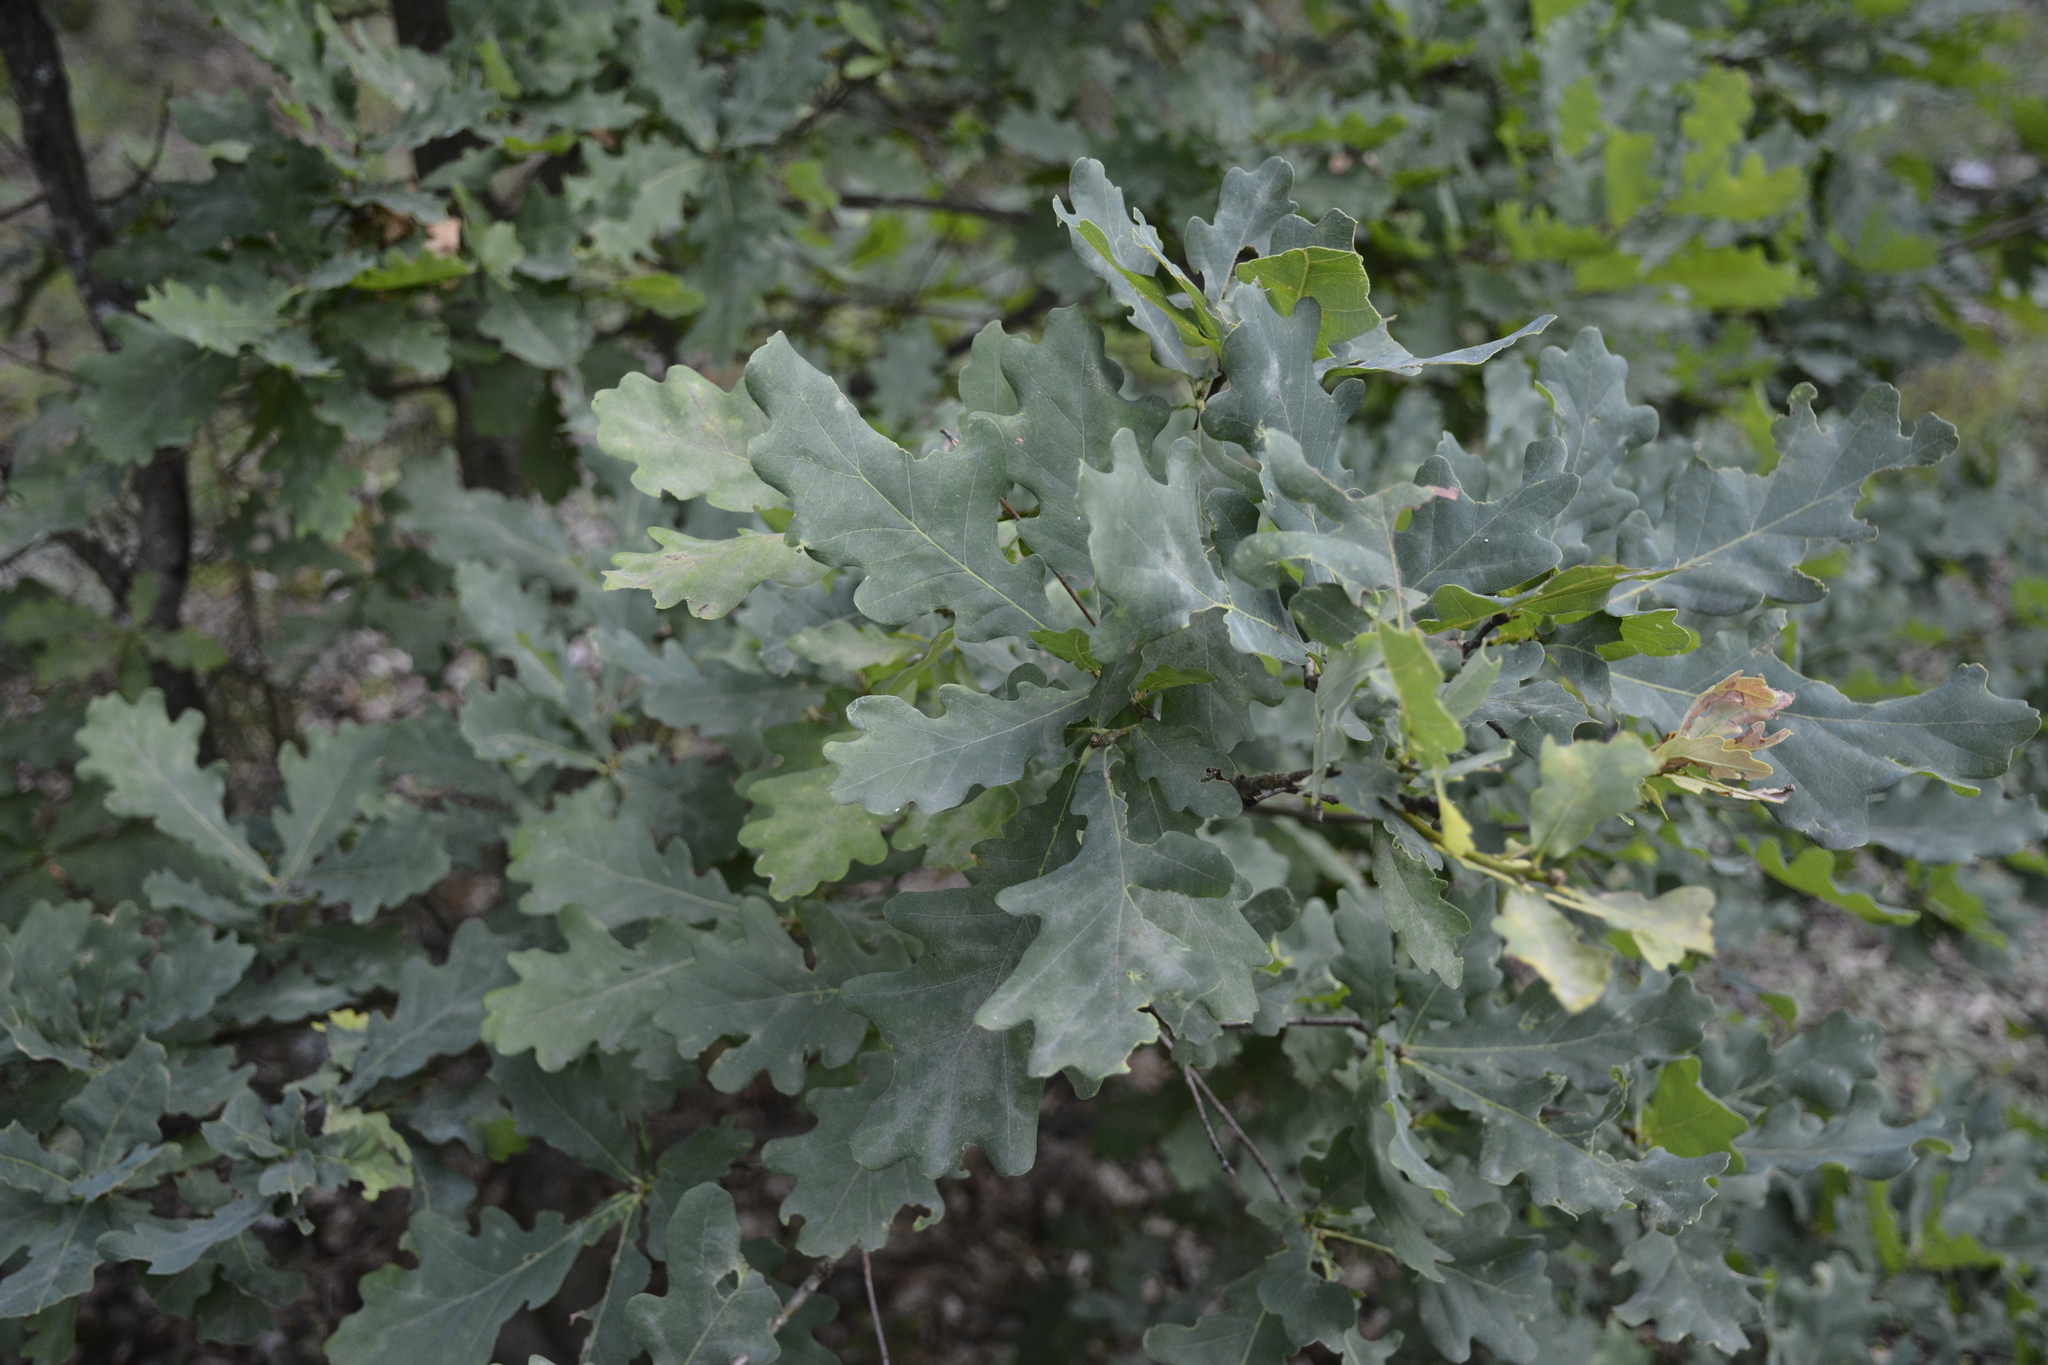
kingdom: Plantae
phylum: Tracheophyta
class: Magnoliopsida
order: Fagales
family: Fagaceae
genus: Quercus
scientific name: Quercus robur
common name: Pedunculate oak
